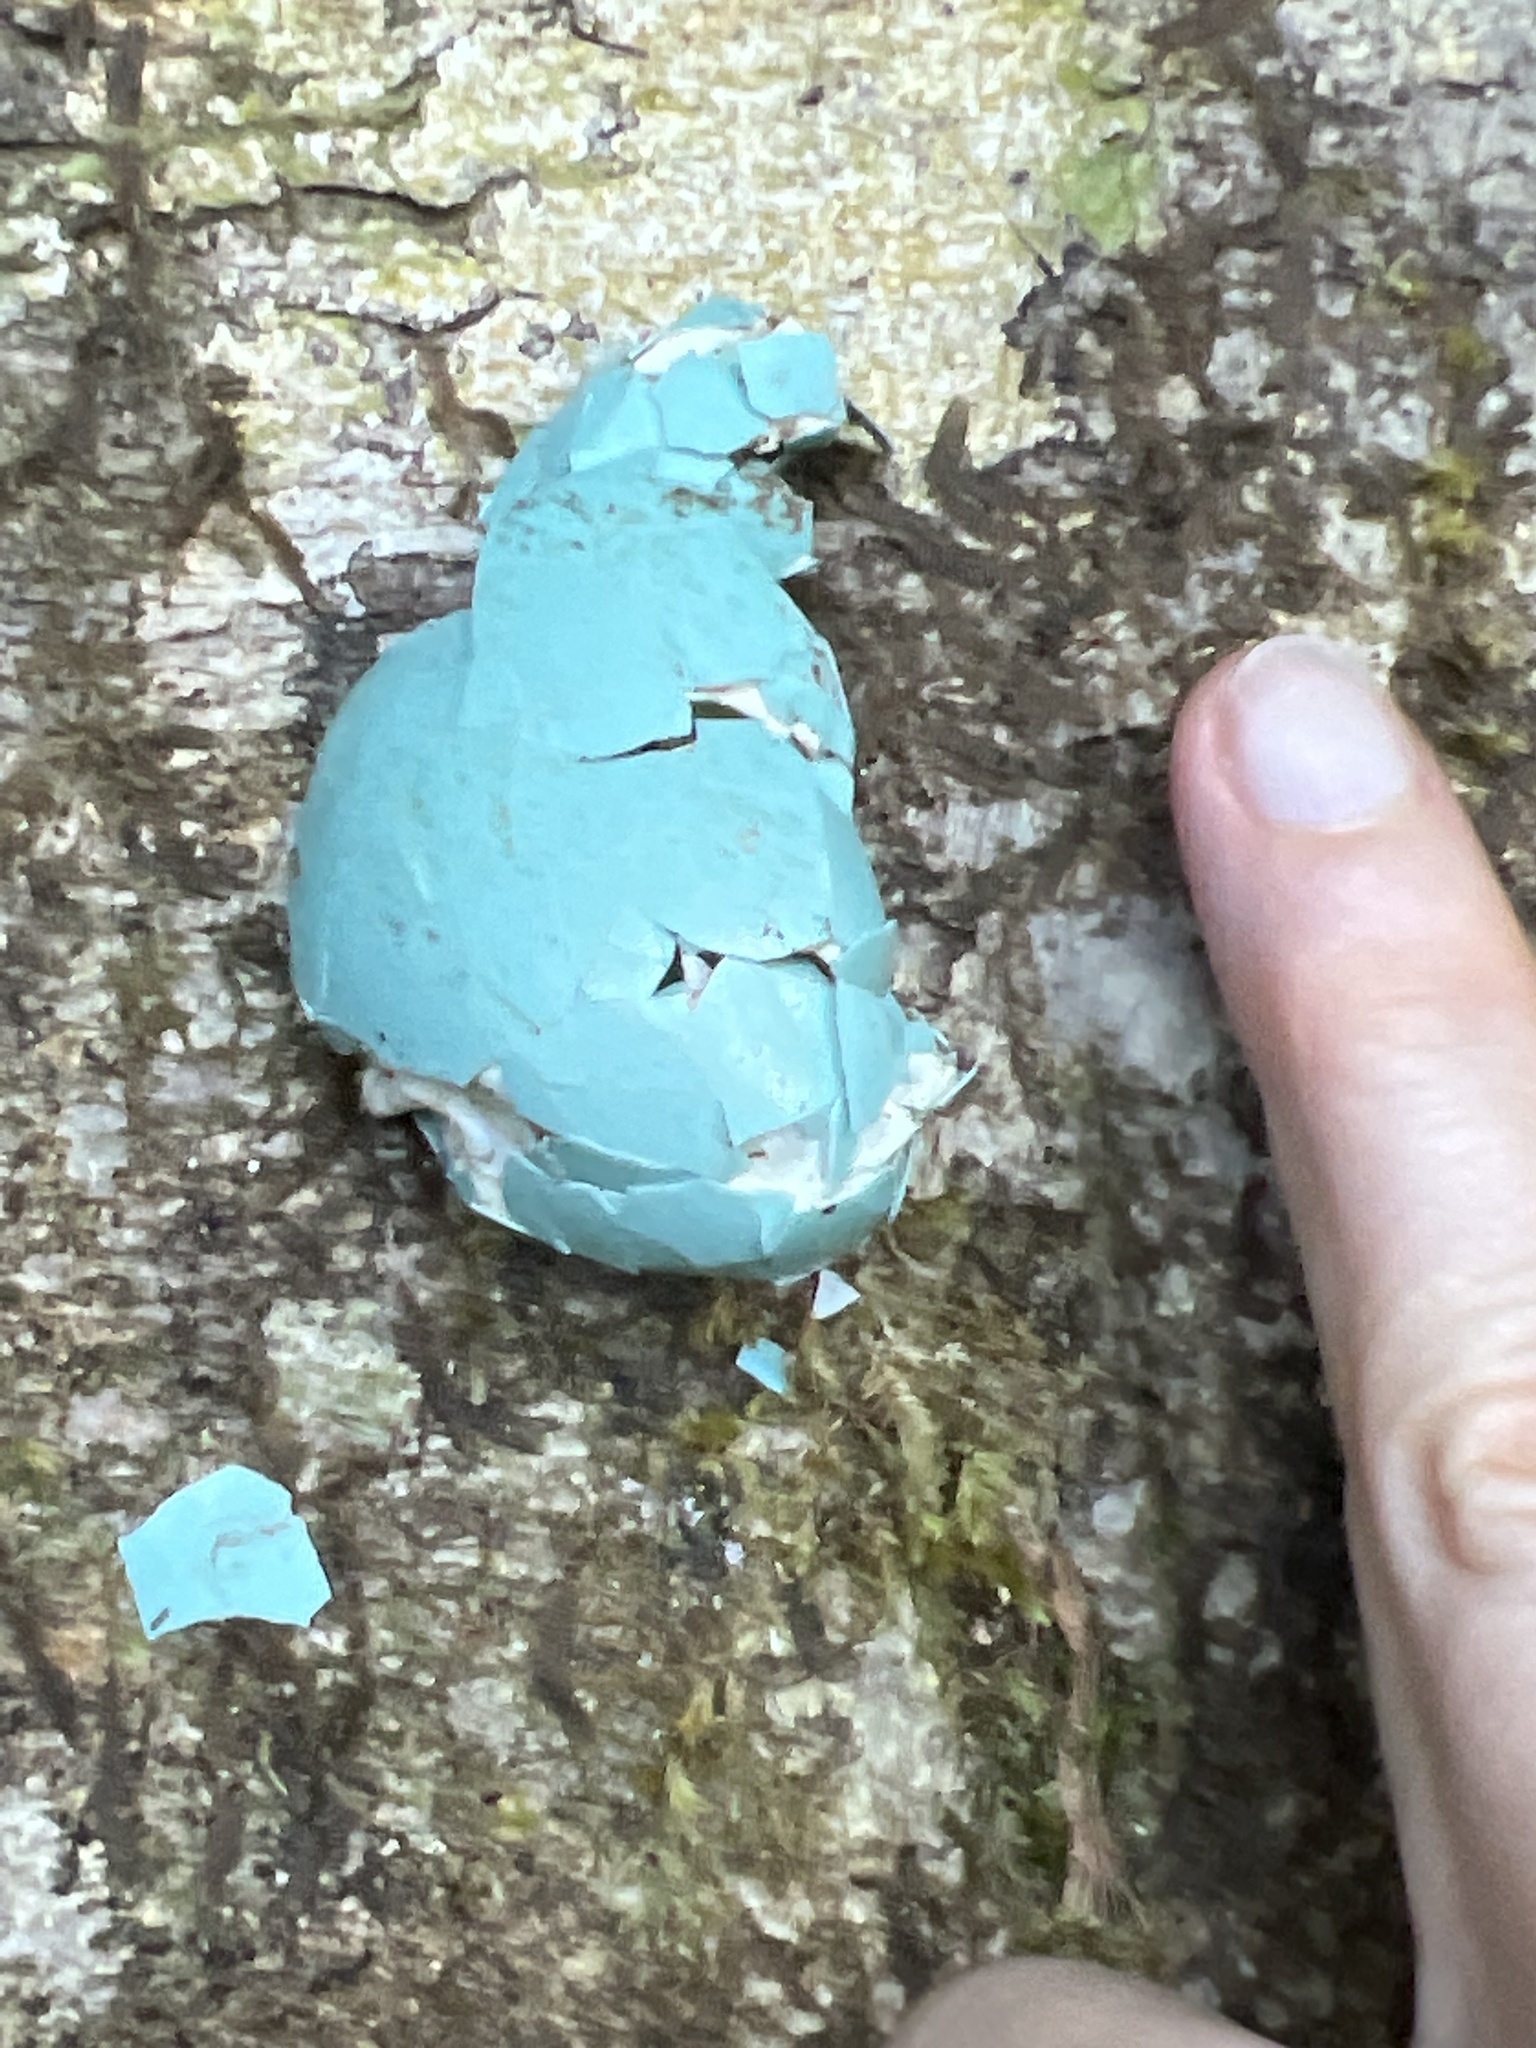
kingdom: Animalia
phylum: Chordata
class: Aves
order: Tinamiformes
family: Tinamidae
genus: Tinamus
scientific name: Tinamus major
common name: Great tinamou
